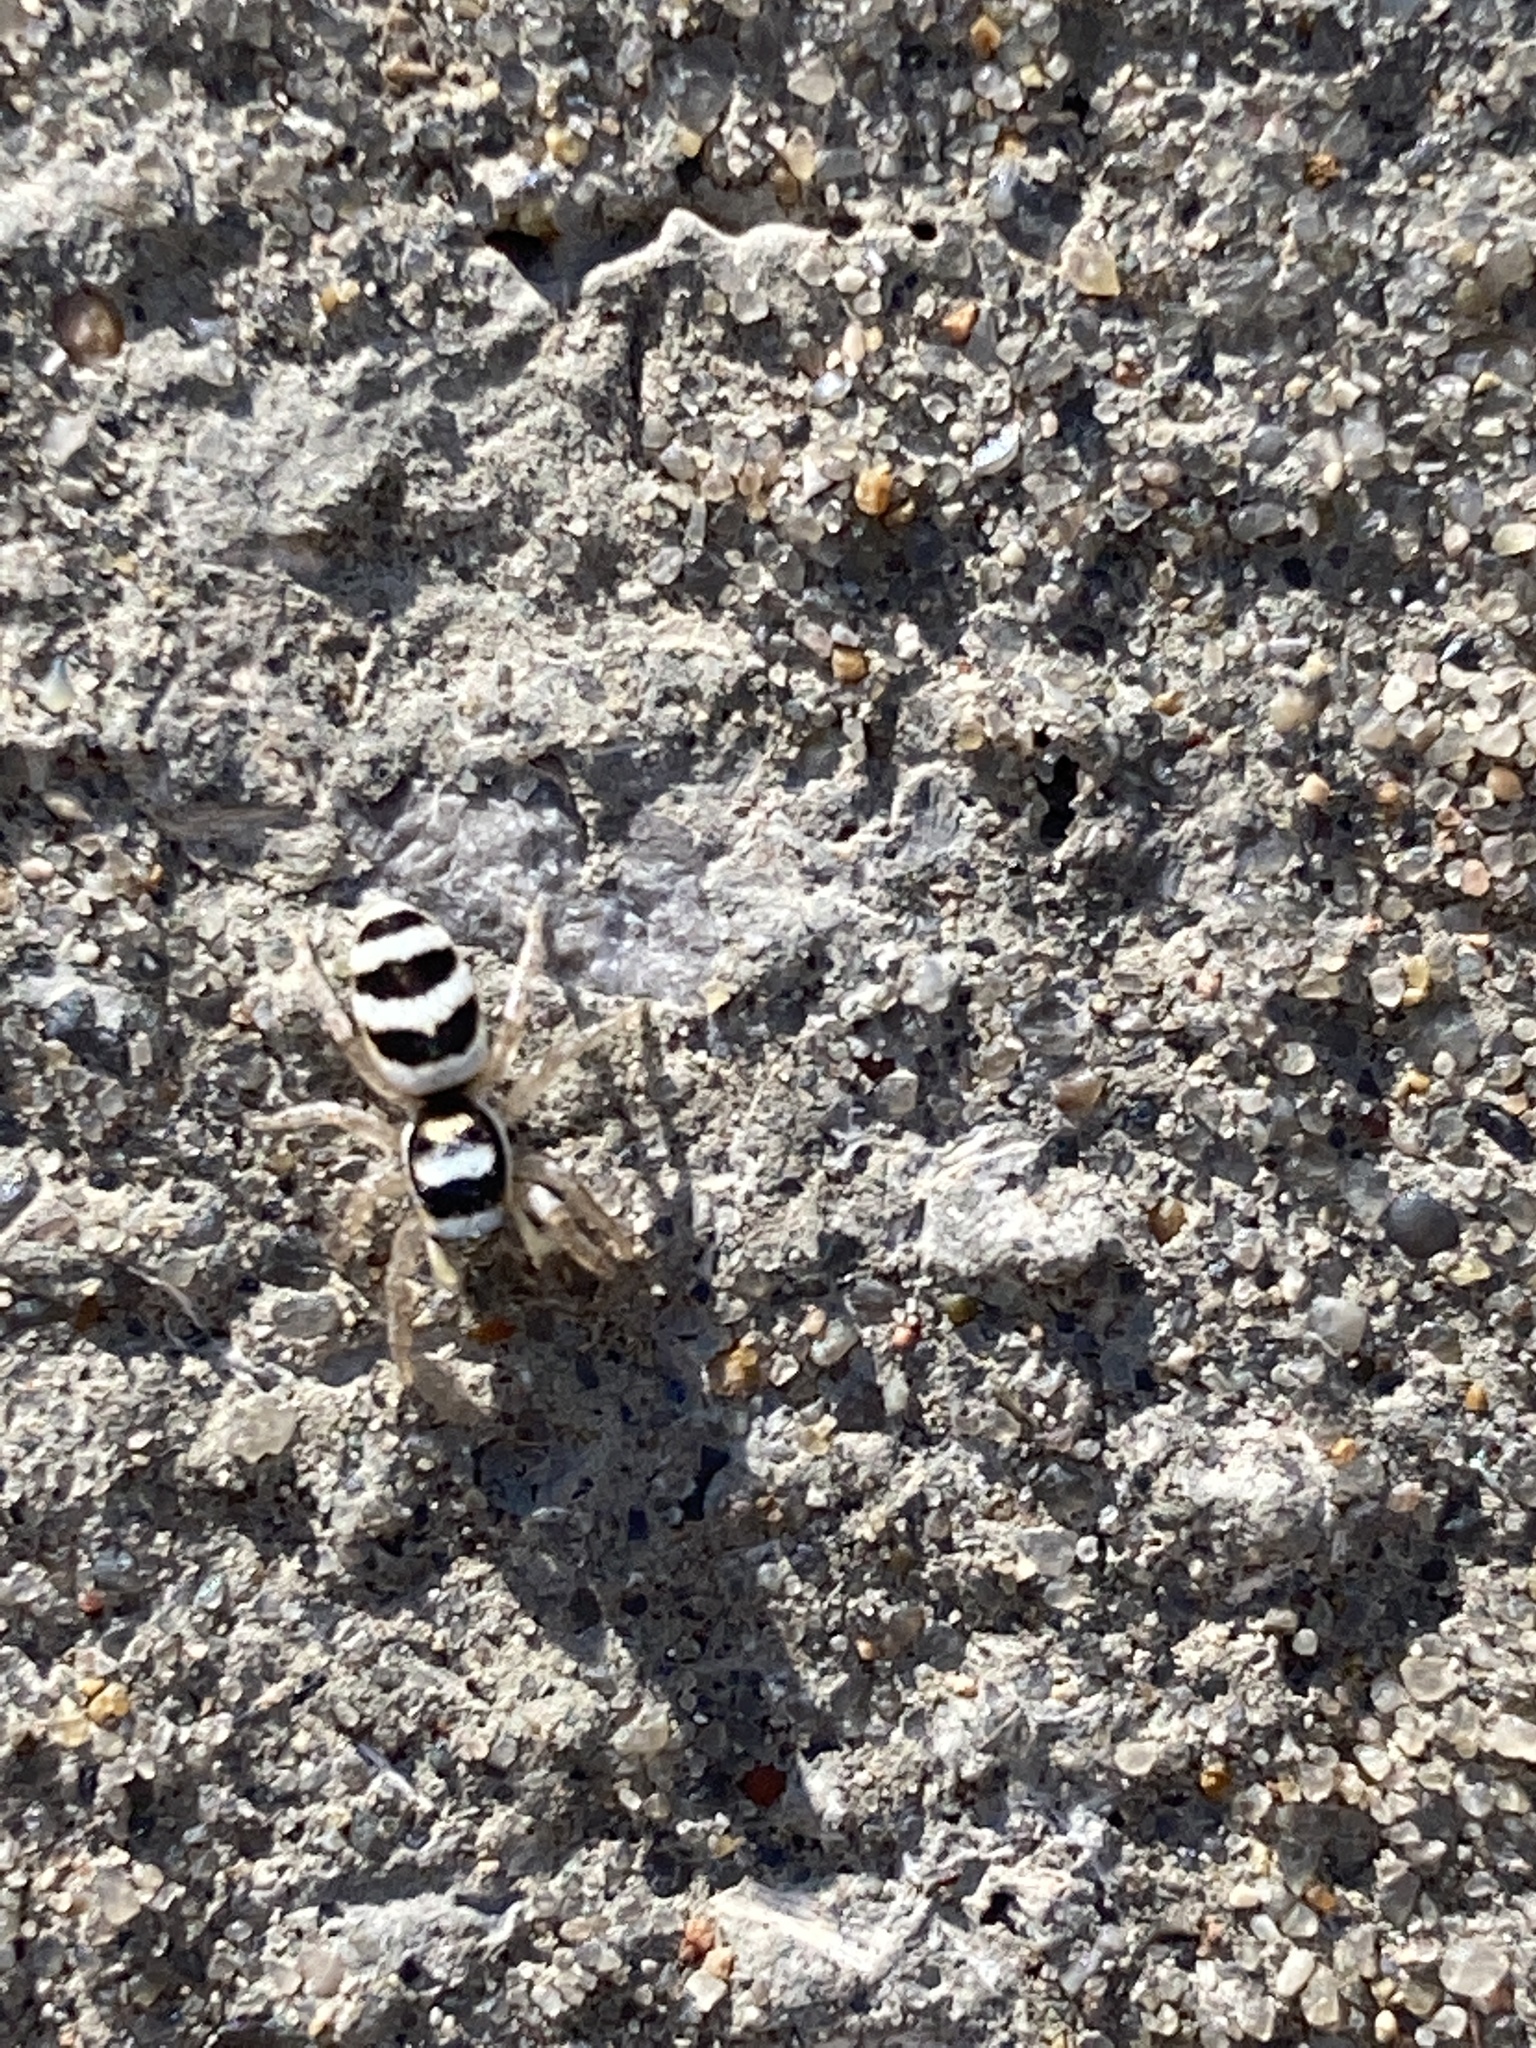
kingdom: Animalia
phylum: Arthropoda
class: Arachnida
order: Araneae
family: Salticidae
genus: Salticus
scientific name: Salticus austinensis
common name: Jumping spiders
